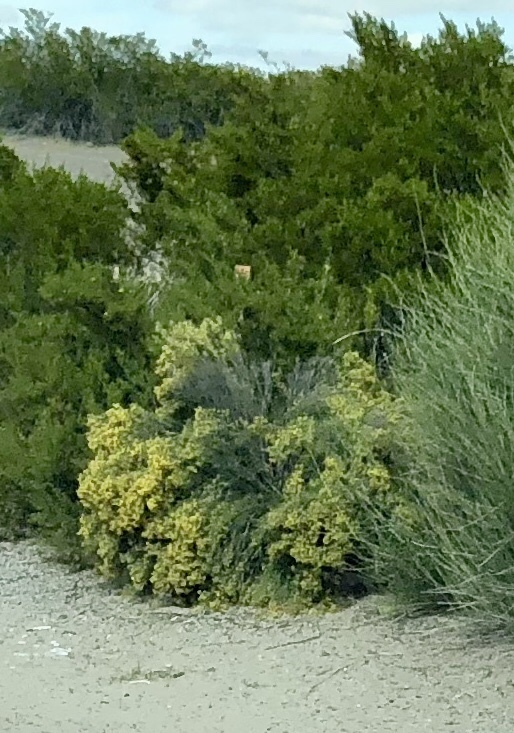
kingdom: Plantae
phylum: Tracheophyta
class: Magnoliopsida
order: Caryophyllales
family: Amaranthaceae
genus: Atriplex
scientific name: Atriplex canescens
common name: Four-wing saltbush
